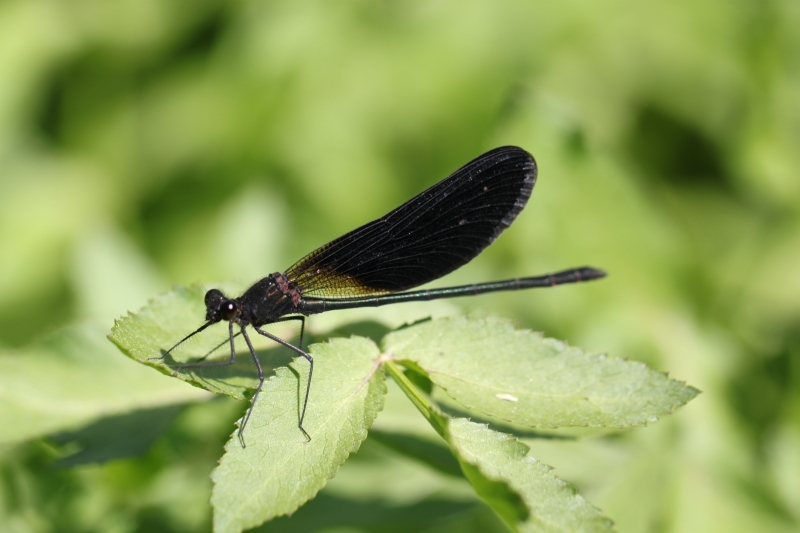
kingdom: Animalia
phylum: Arthropoda
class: Insecta
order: Odonata
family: Calopterygidae
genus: Calopteryx
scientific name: Calopteryx haemorrhoidalis
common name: Copper demoiselle
